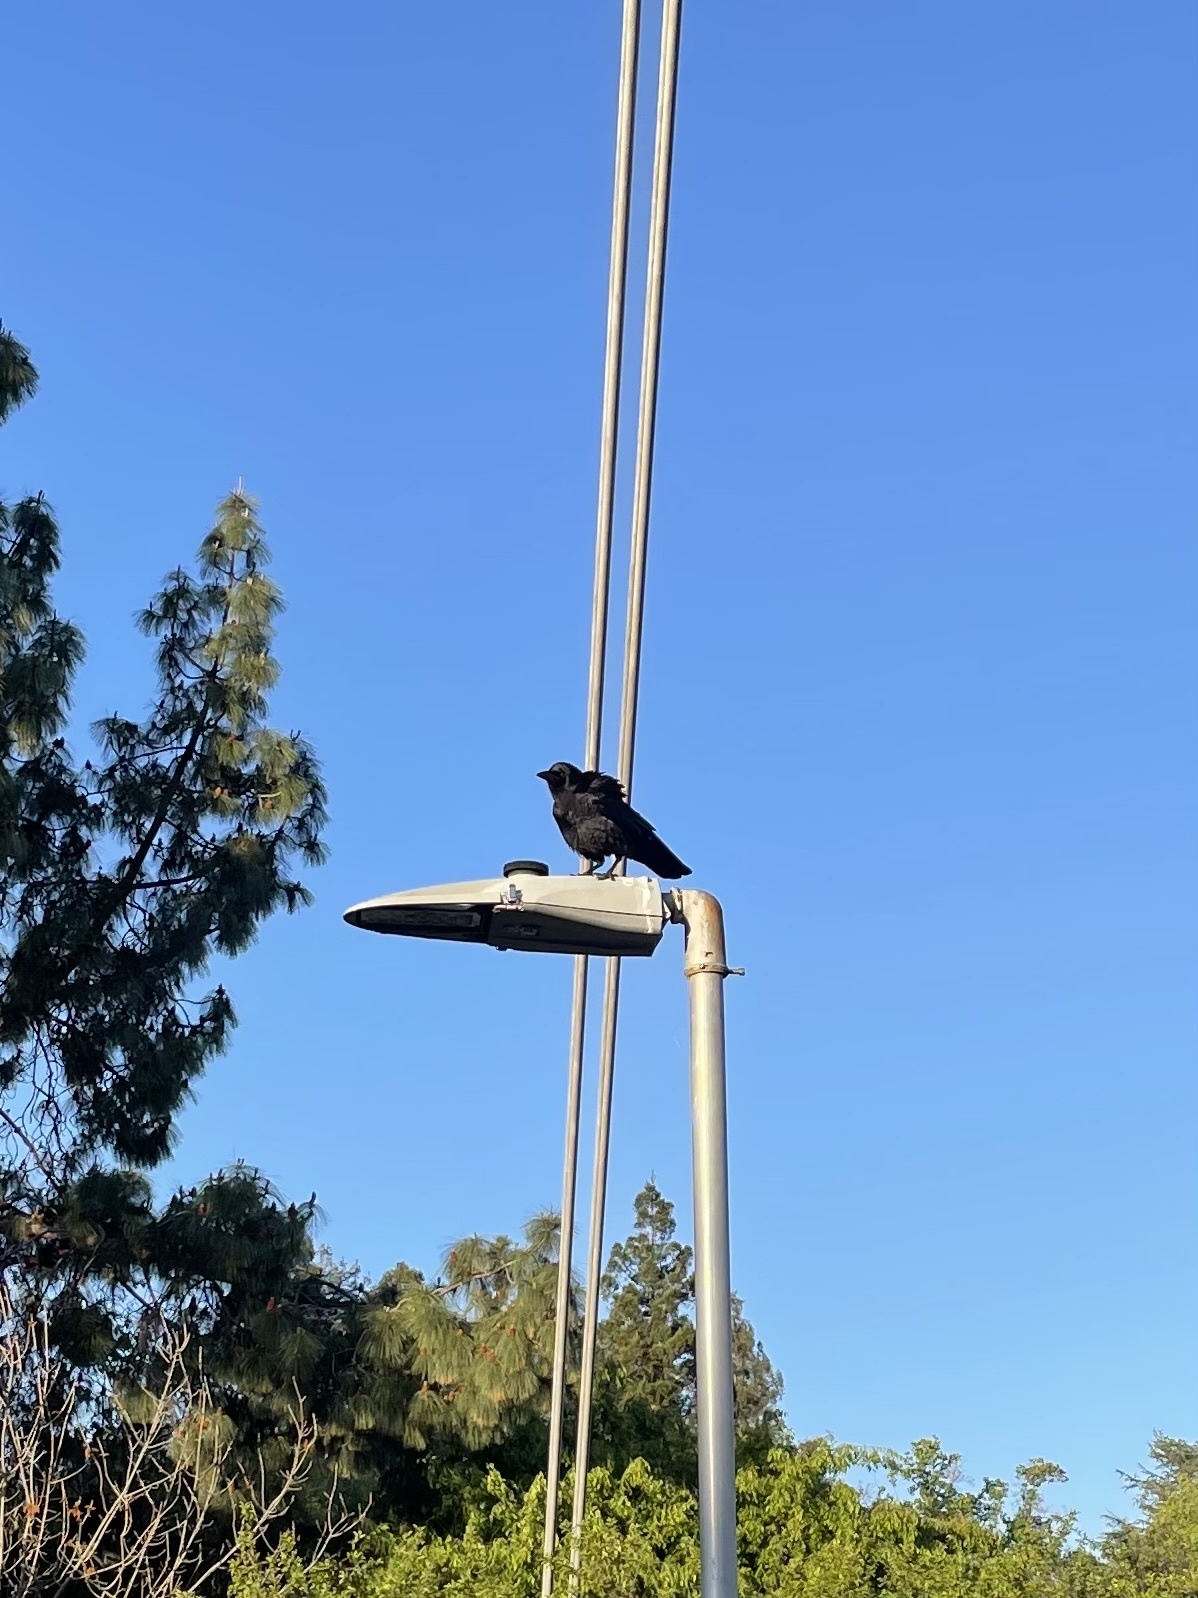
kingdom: Animalia
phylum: Chordata
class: Aves
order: Passeriformes
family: Corvidae
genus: Corvus
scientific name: Corvus brachyrhynchos
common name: American crow
